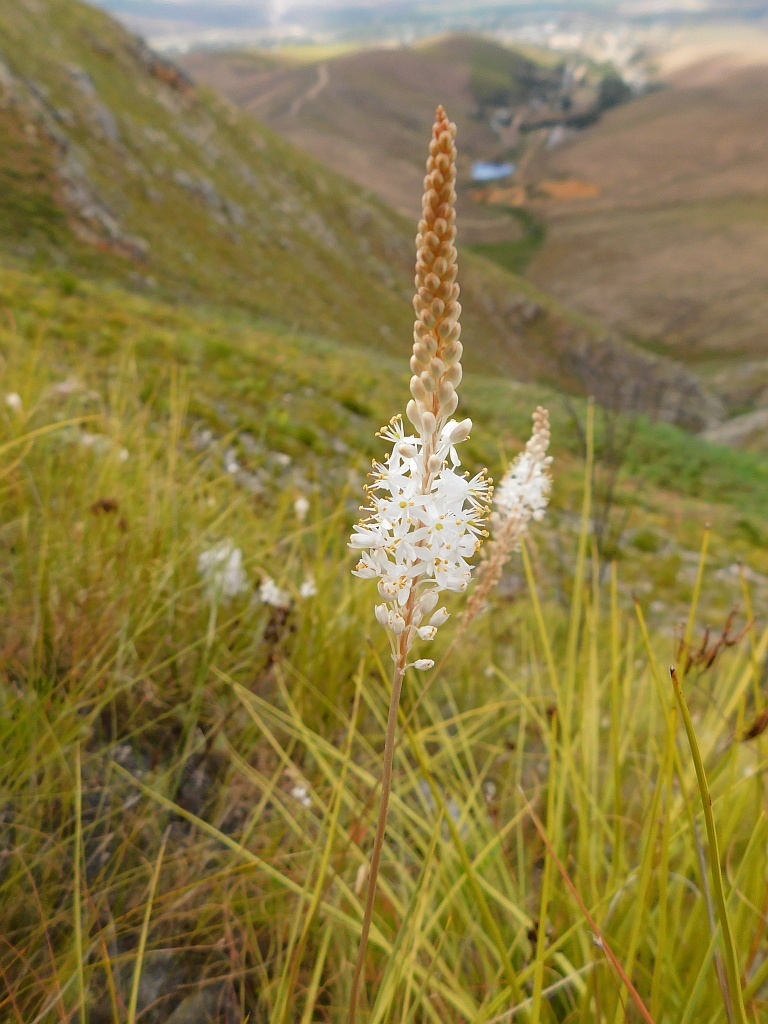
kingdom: Plantae
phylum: Tracheophyta
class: Liliopsida
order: Asparagales
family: Asphodelaceae
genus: Bulbinella
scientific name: Bulbinella trinervis
